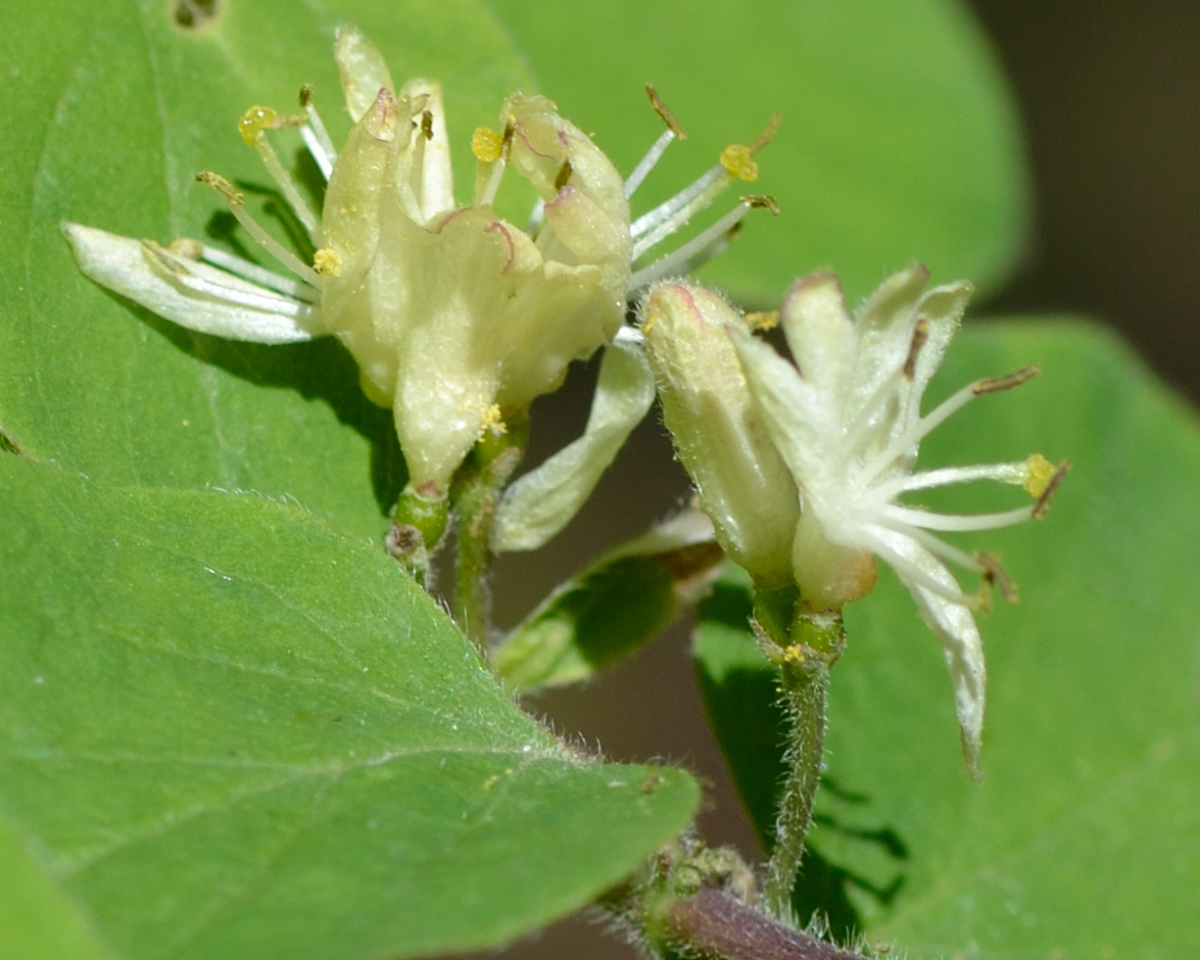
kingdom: Plantae
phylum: Tracheophyta
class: Magnoliopsida
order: Dipsacales
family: Caprifoliaceae
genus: Lonicera
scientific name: Lonicera xylosteum
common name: Fly honeysuckle
